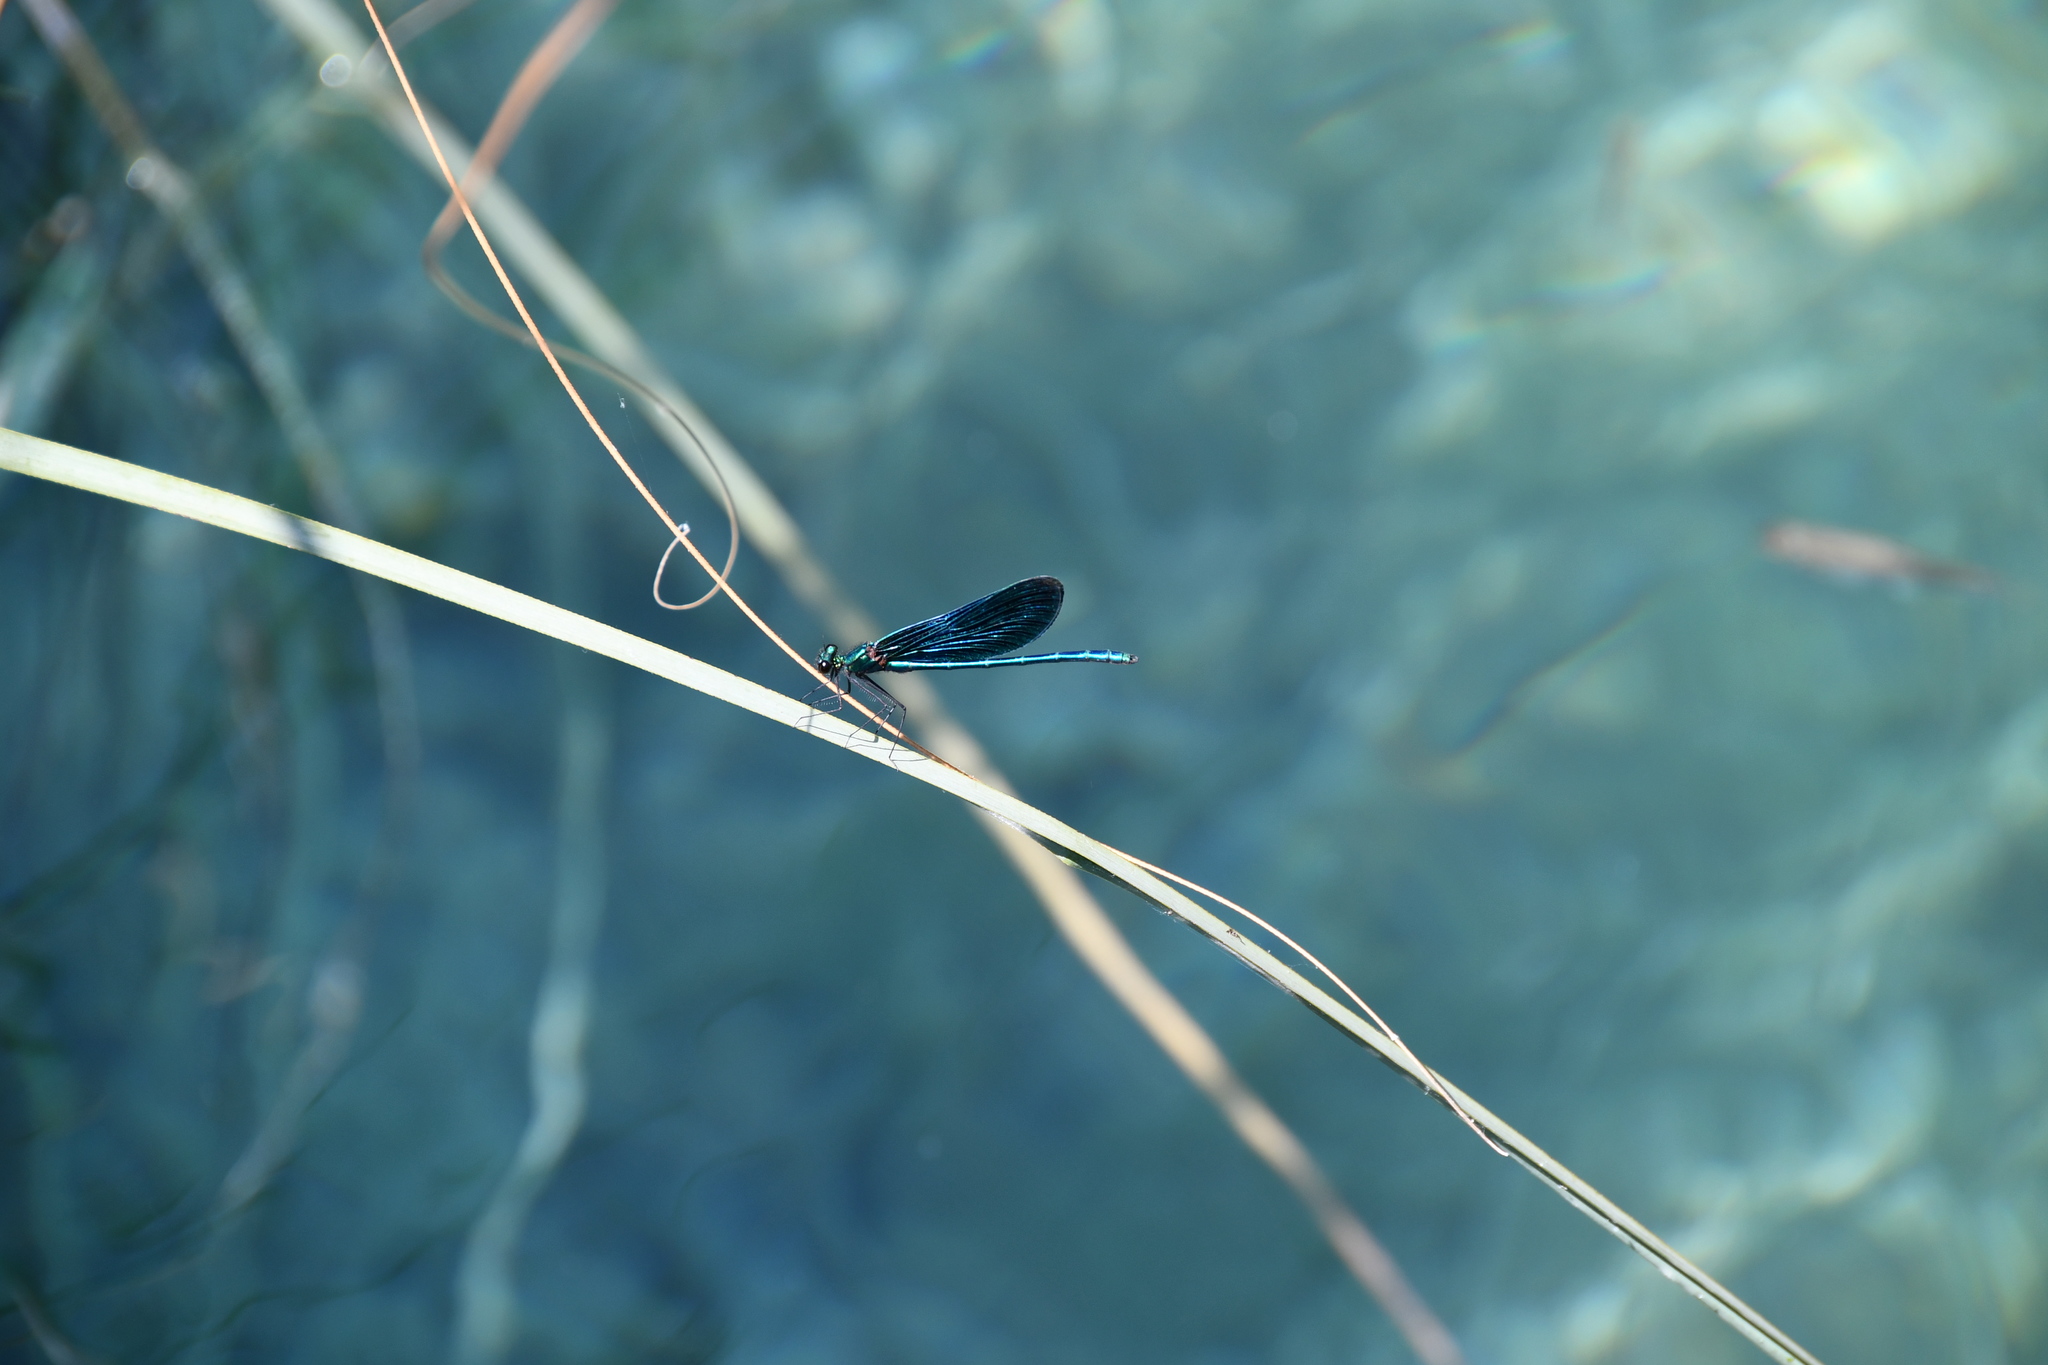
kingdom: Animalia
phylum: Arthropoda
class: Insecta
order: Odonata
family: Calopterygidae
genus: Calopteryx
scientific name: Calopteryx virgo
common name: Beautiful demoiselle
